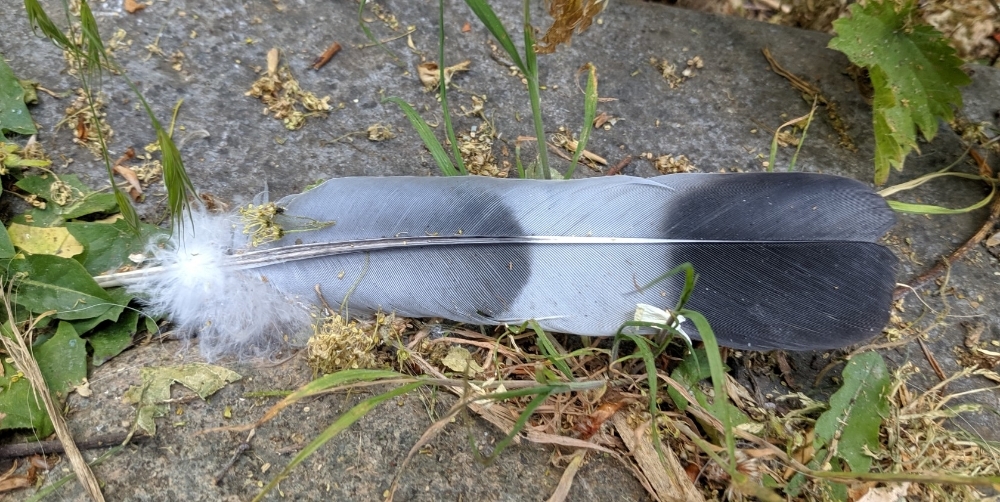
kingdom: Animalia
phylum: Chordata
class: Aves
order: Columbiformes
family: Columbidae
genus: Columba
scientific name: Columba palumbus
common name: Common wood pigeon
